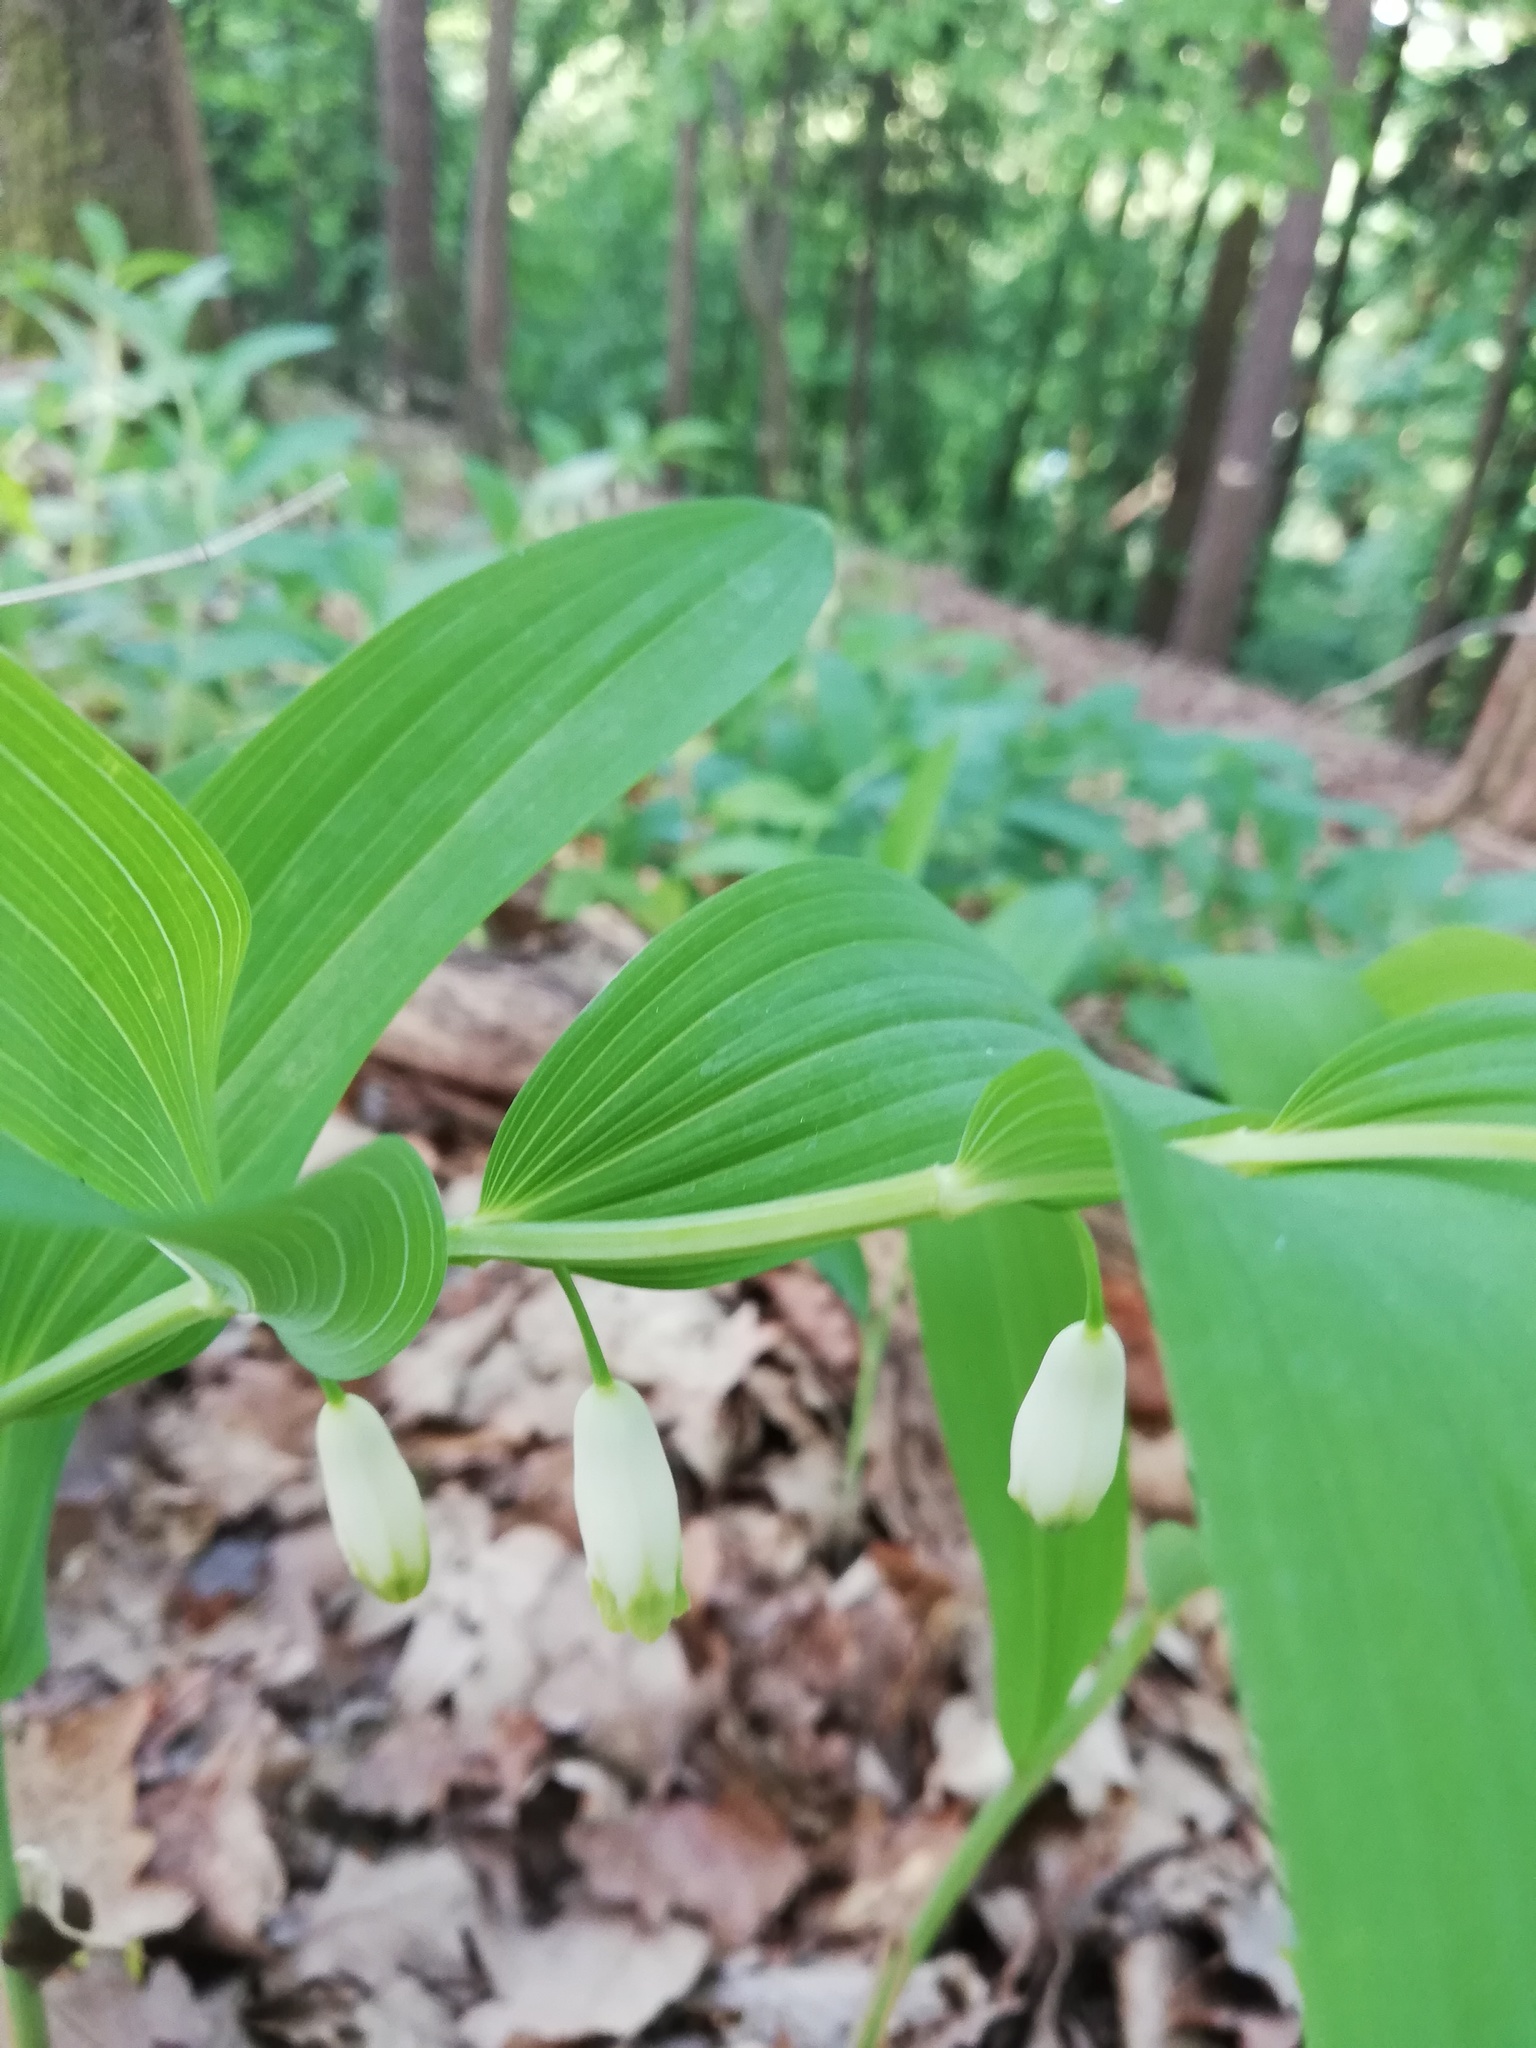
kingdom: Plantae
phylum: Tracheophyta
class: Liliopsida
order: Asparagales
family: Asparagaceae
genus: Polygonatum
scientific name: Polygonatum odoratum
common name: Angular solomon's-seal
